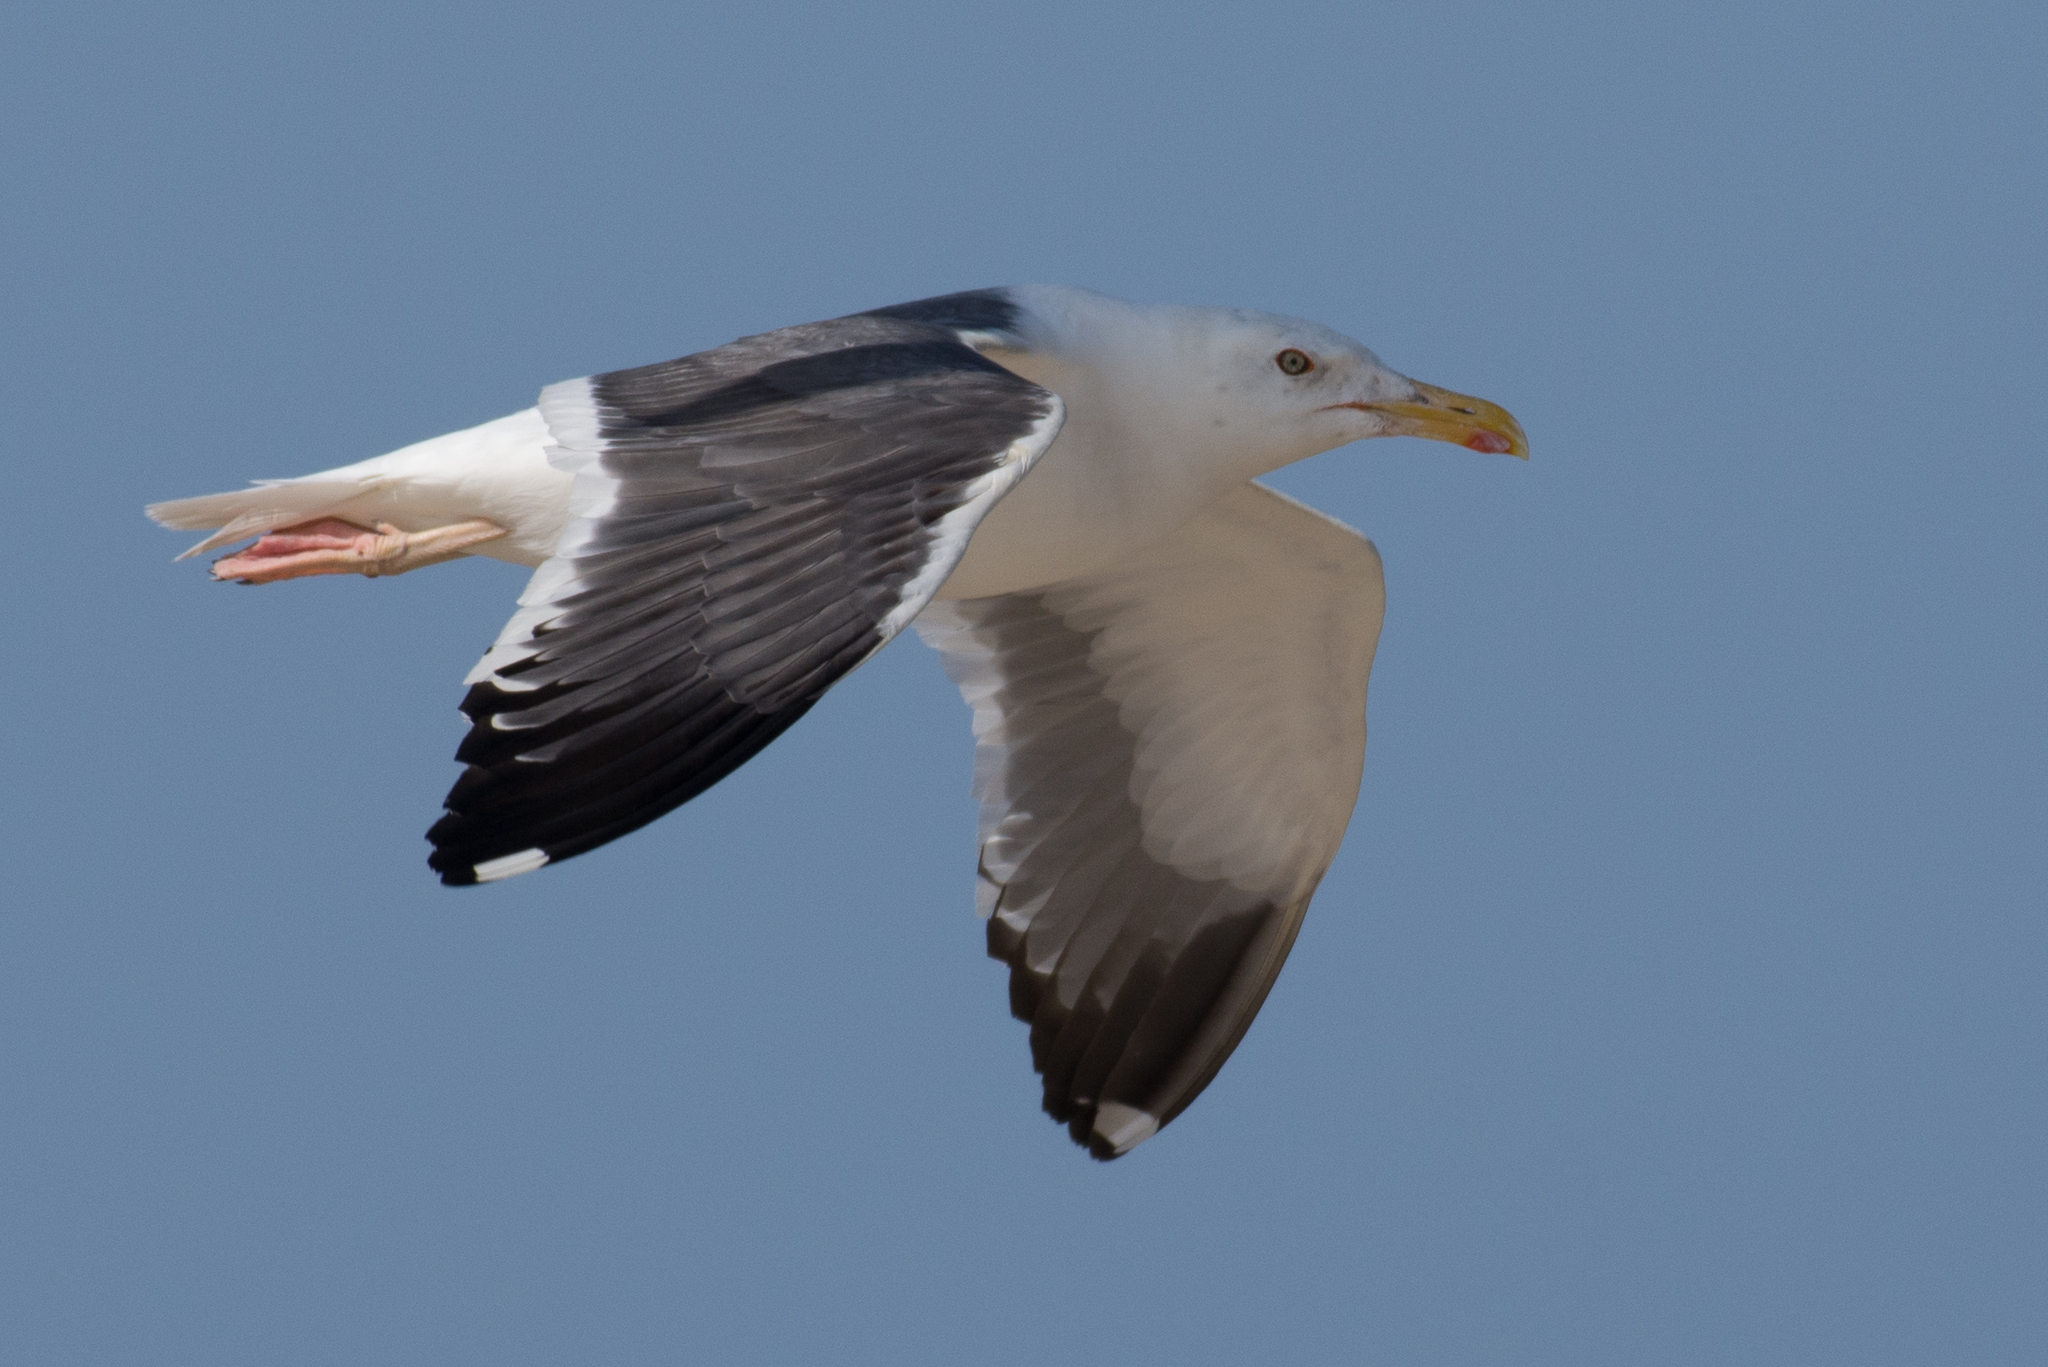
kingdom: Animalia
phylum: Chordata
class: Aves
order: Charadriiformes
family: Laridae
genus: Larus
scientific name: Larus fuscus
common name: Lesser black-backed gull
